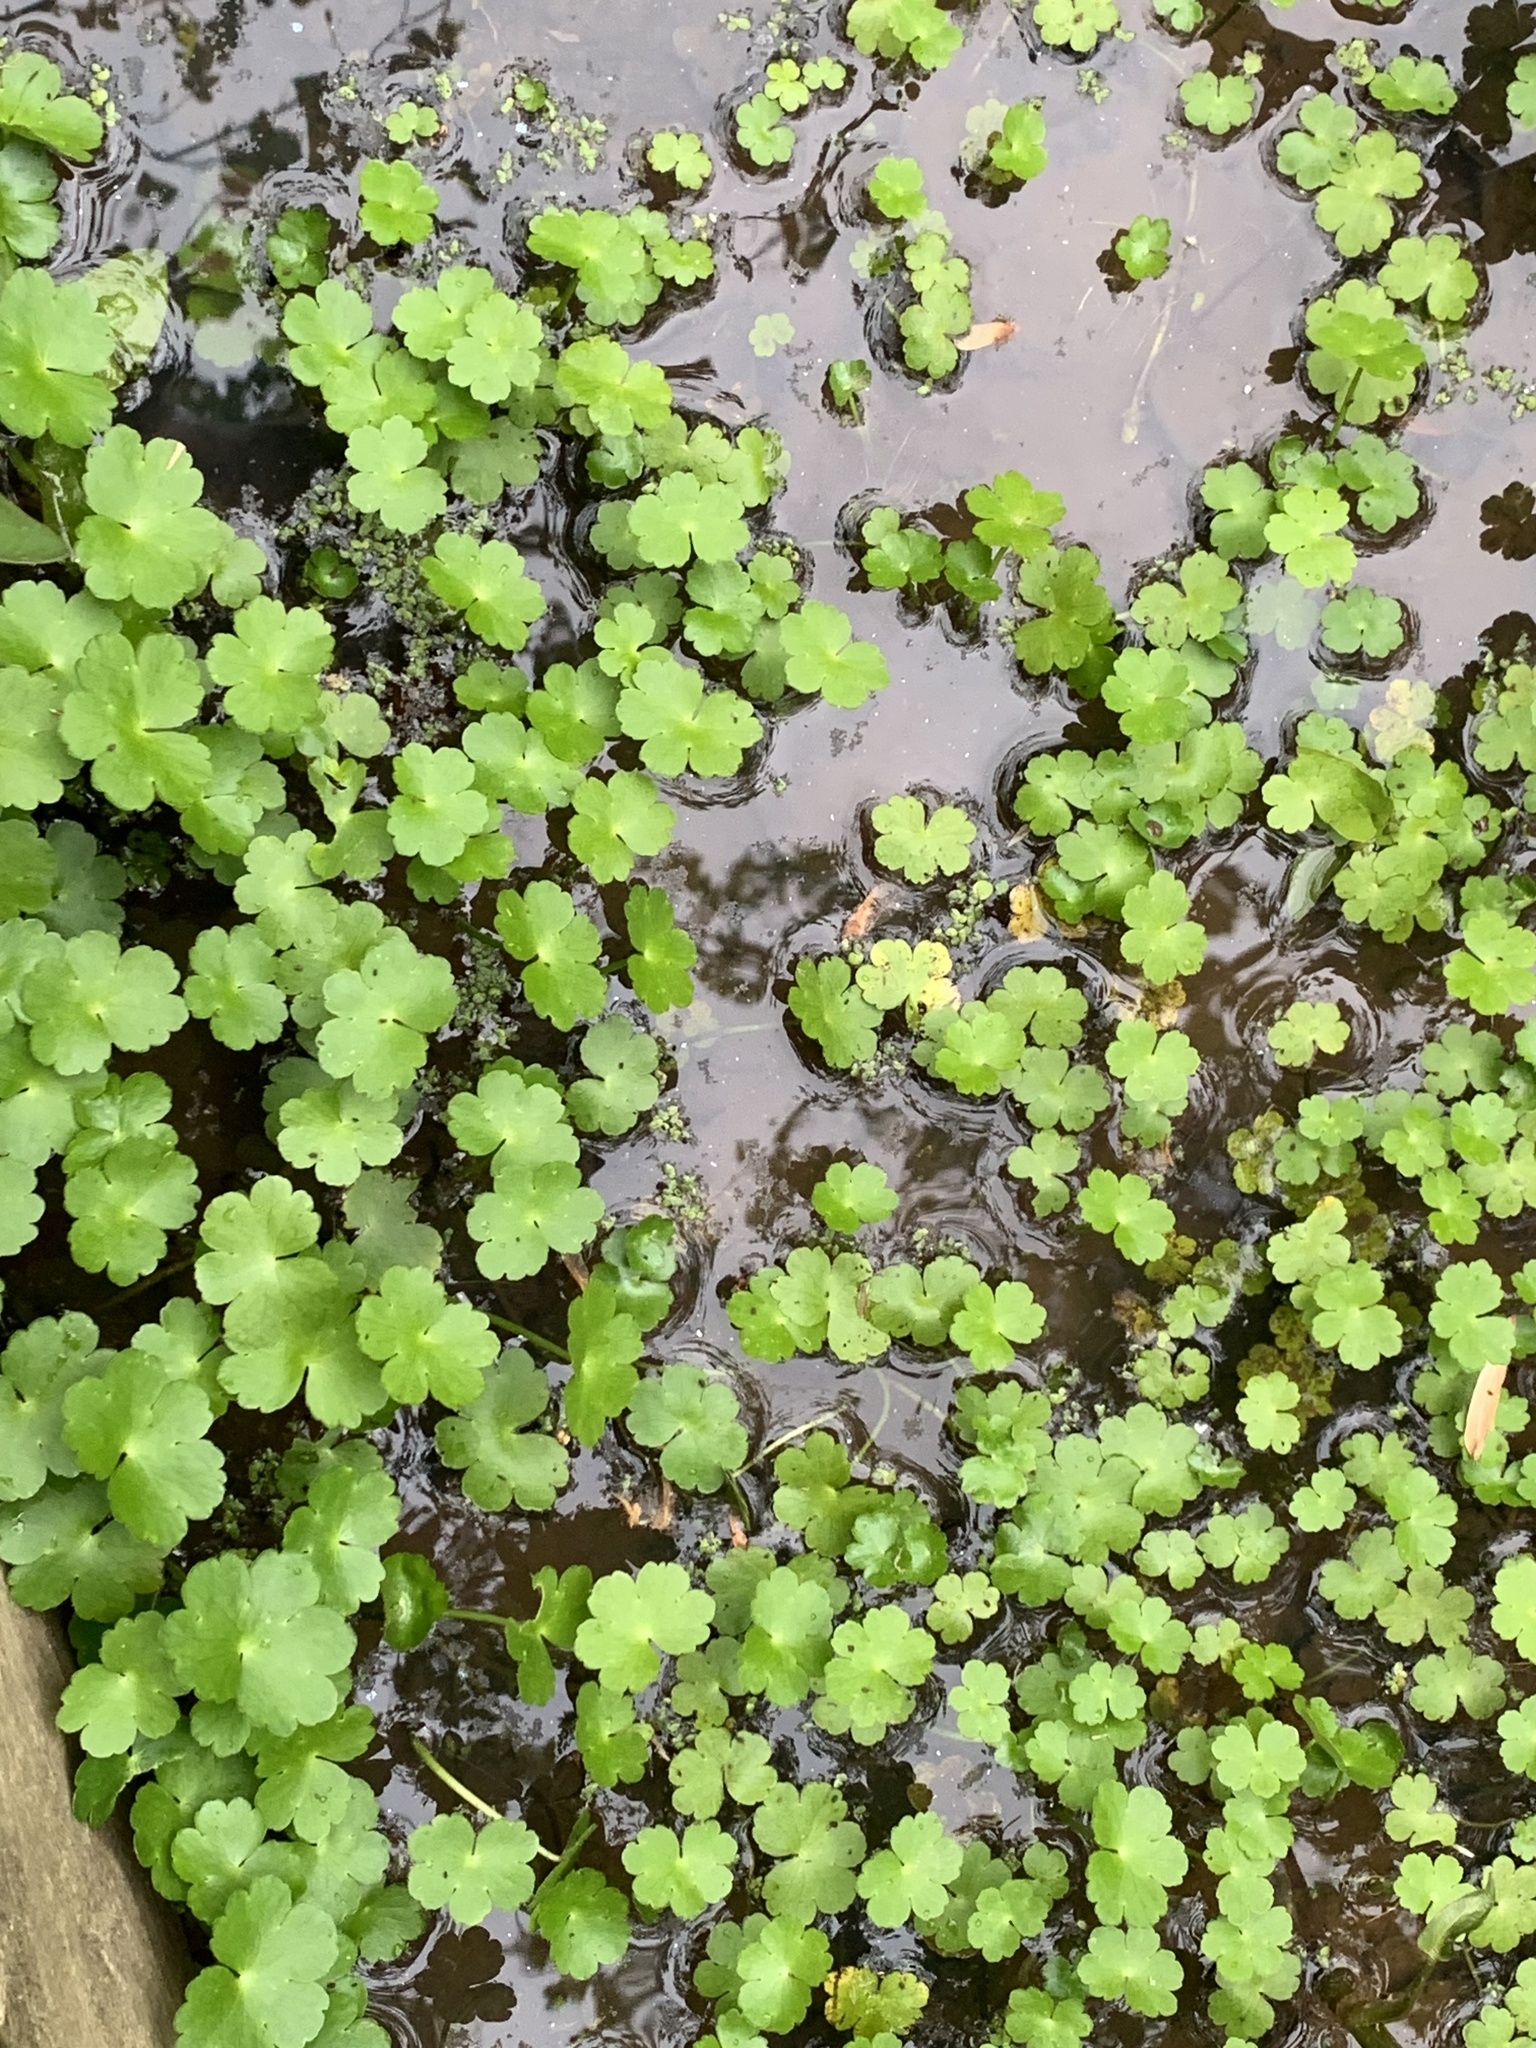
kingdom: Plantae
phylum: Tracheophyta
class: Magnoliopsida
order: Apiales
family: Araliaceae
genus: Hydrocotyle
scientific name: Hydrocotyle ranunculoides
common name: Floating pennywort
